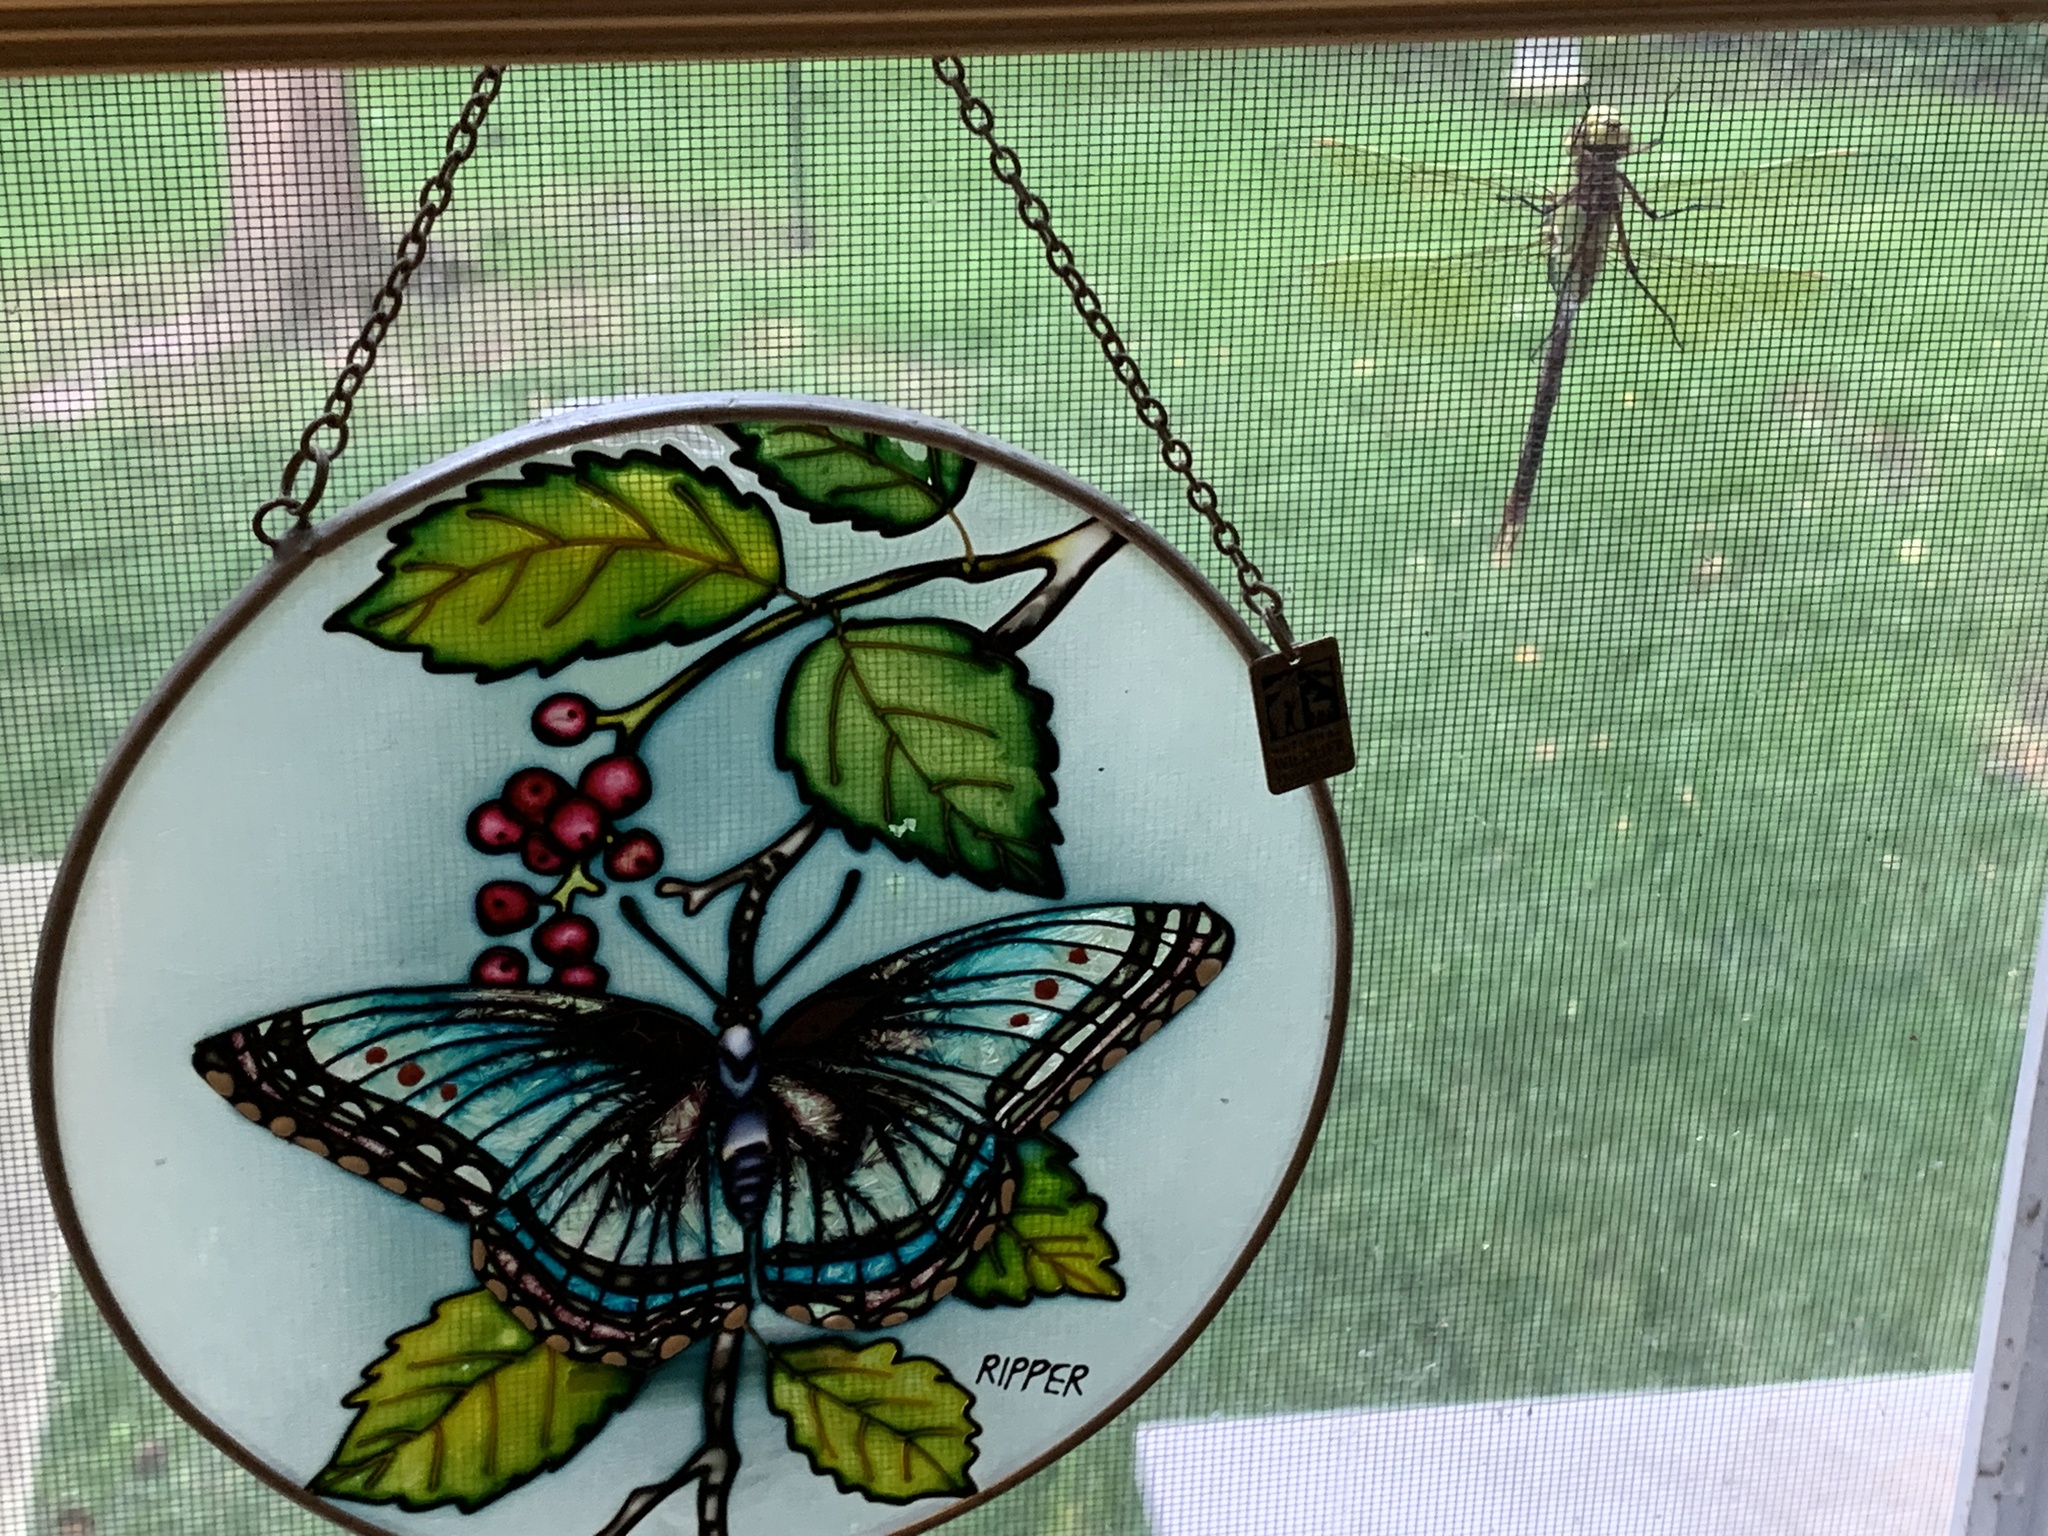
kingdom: Animalia
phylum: Arthropoda
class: Insecta
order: Odonata
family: Aeshnidae
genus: Anax
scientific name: Anax junius
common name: Common green darner
